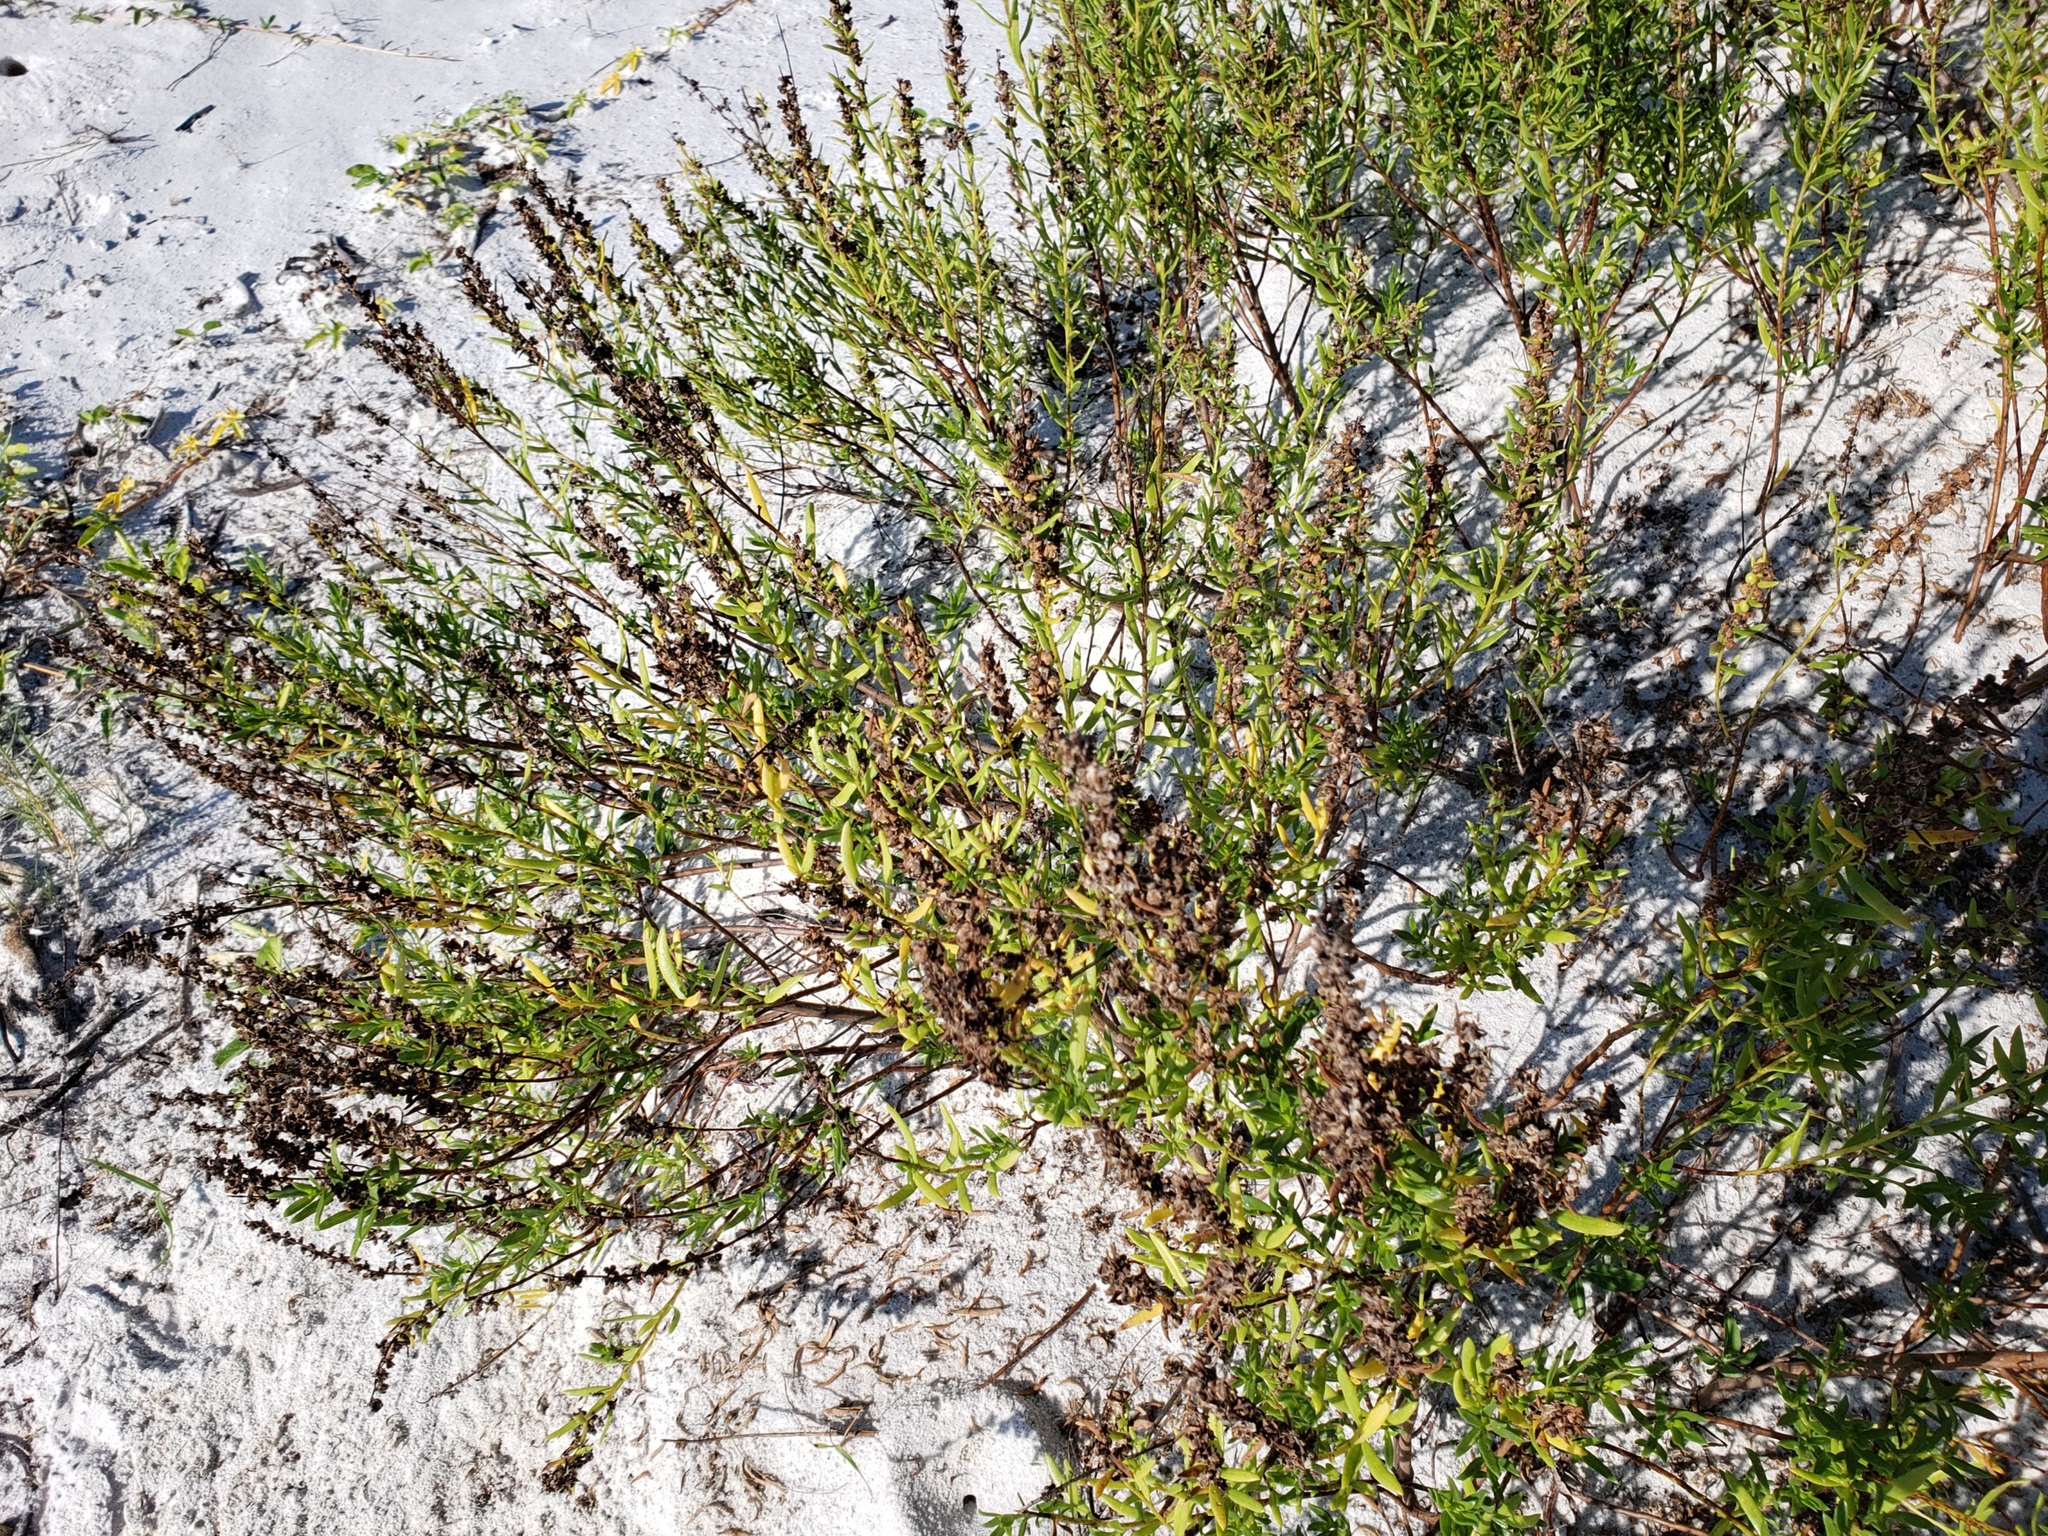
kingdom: Plantae
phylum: Tracheophyta
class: Magnoliopsida
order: Asterales
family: Asteraceae
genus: Iva
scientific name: Iva imbricata
